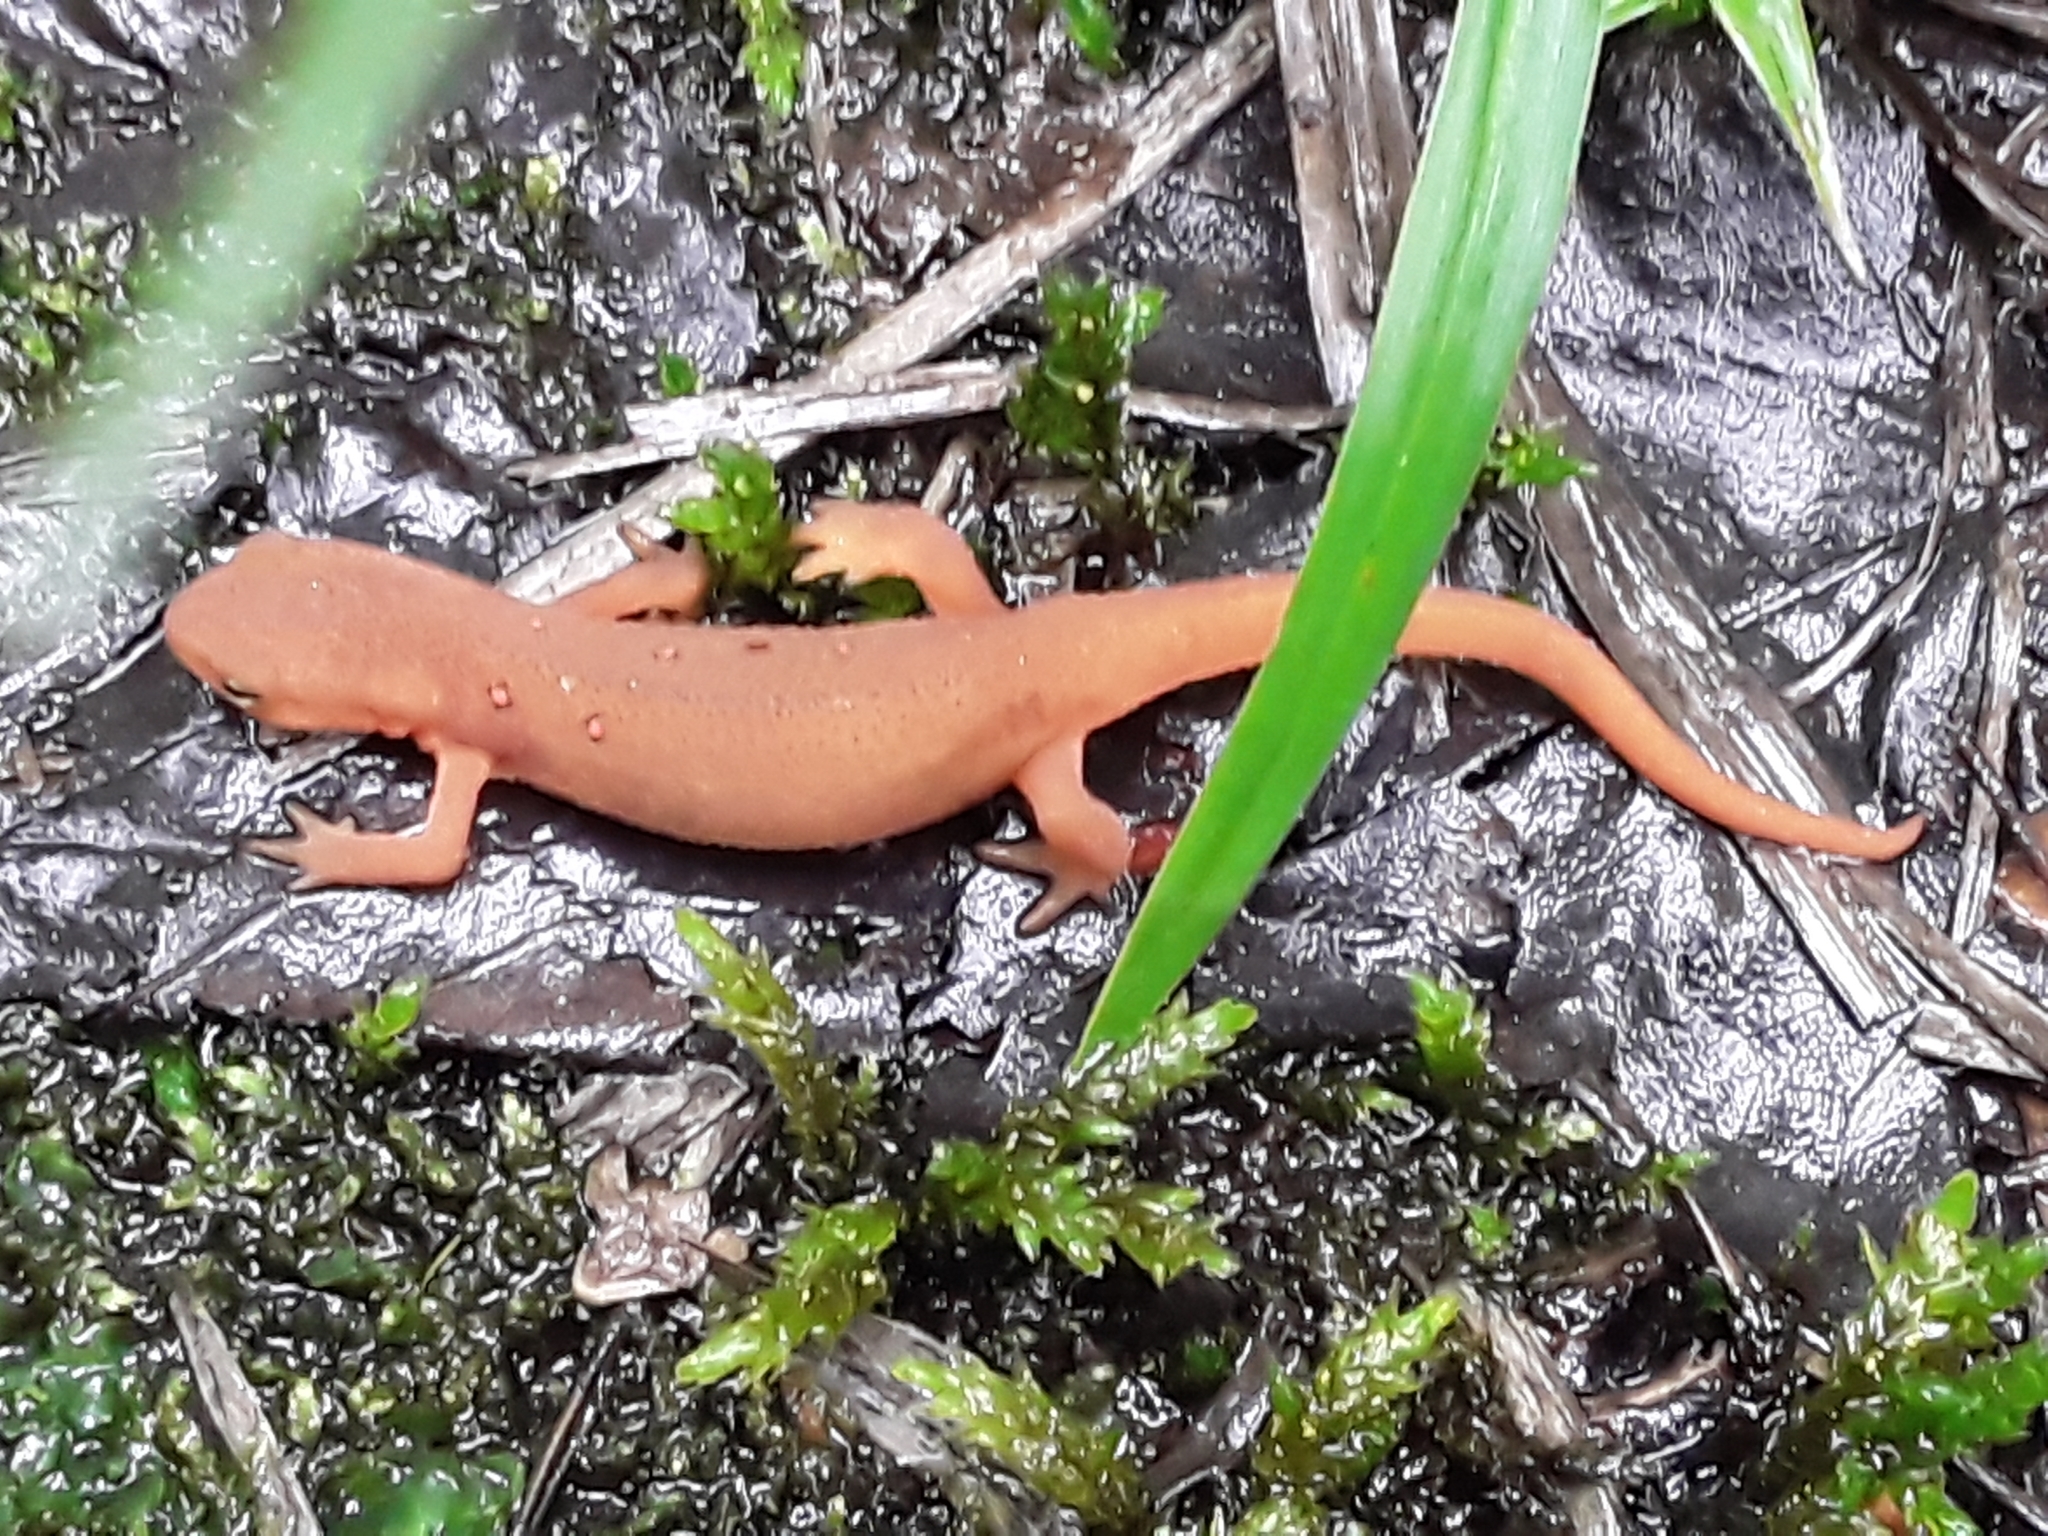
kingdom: Animalia
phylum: Chordata
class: Amphibia
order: Caudata
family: Salamandridae
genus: Notophthalmus
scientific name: Notophthalmus viridescens
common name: Eastern newt
